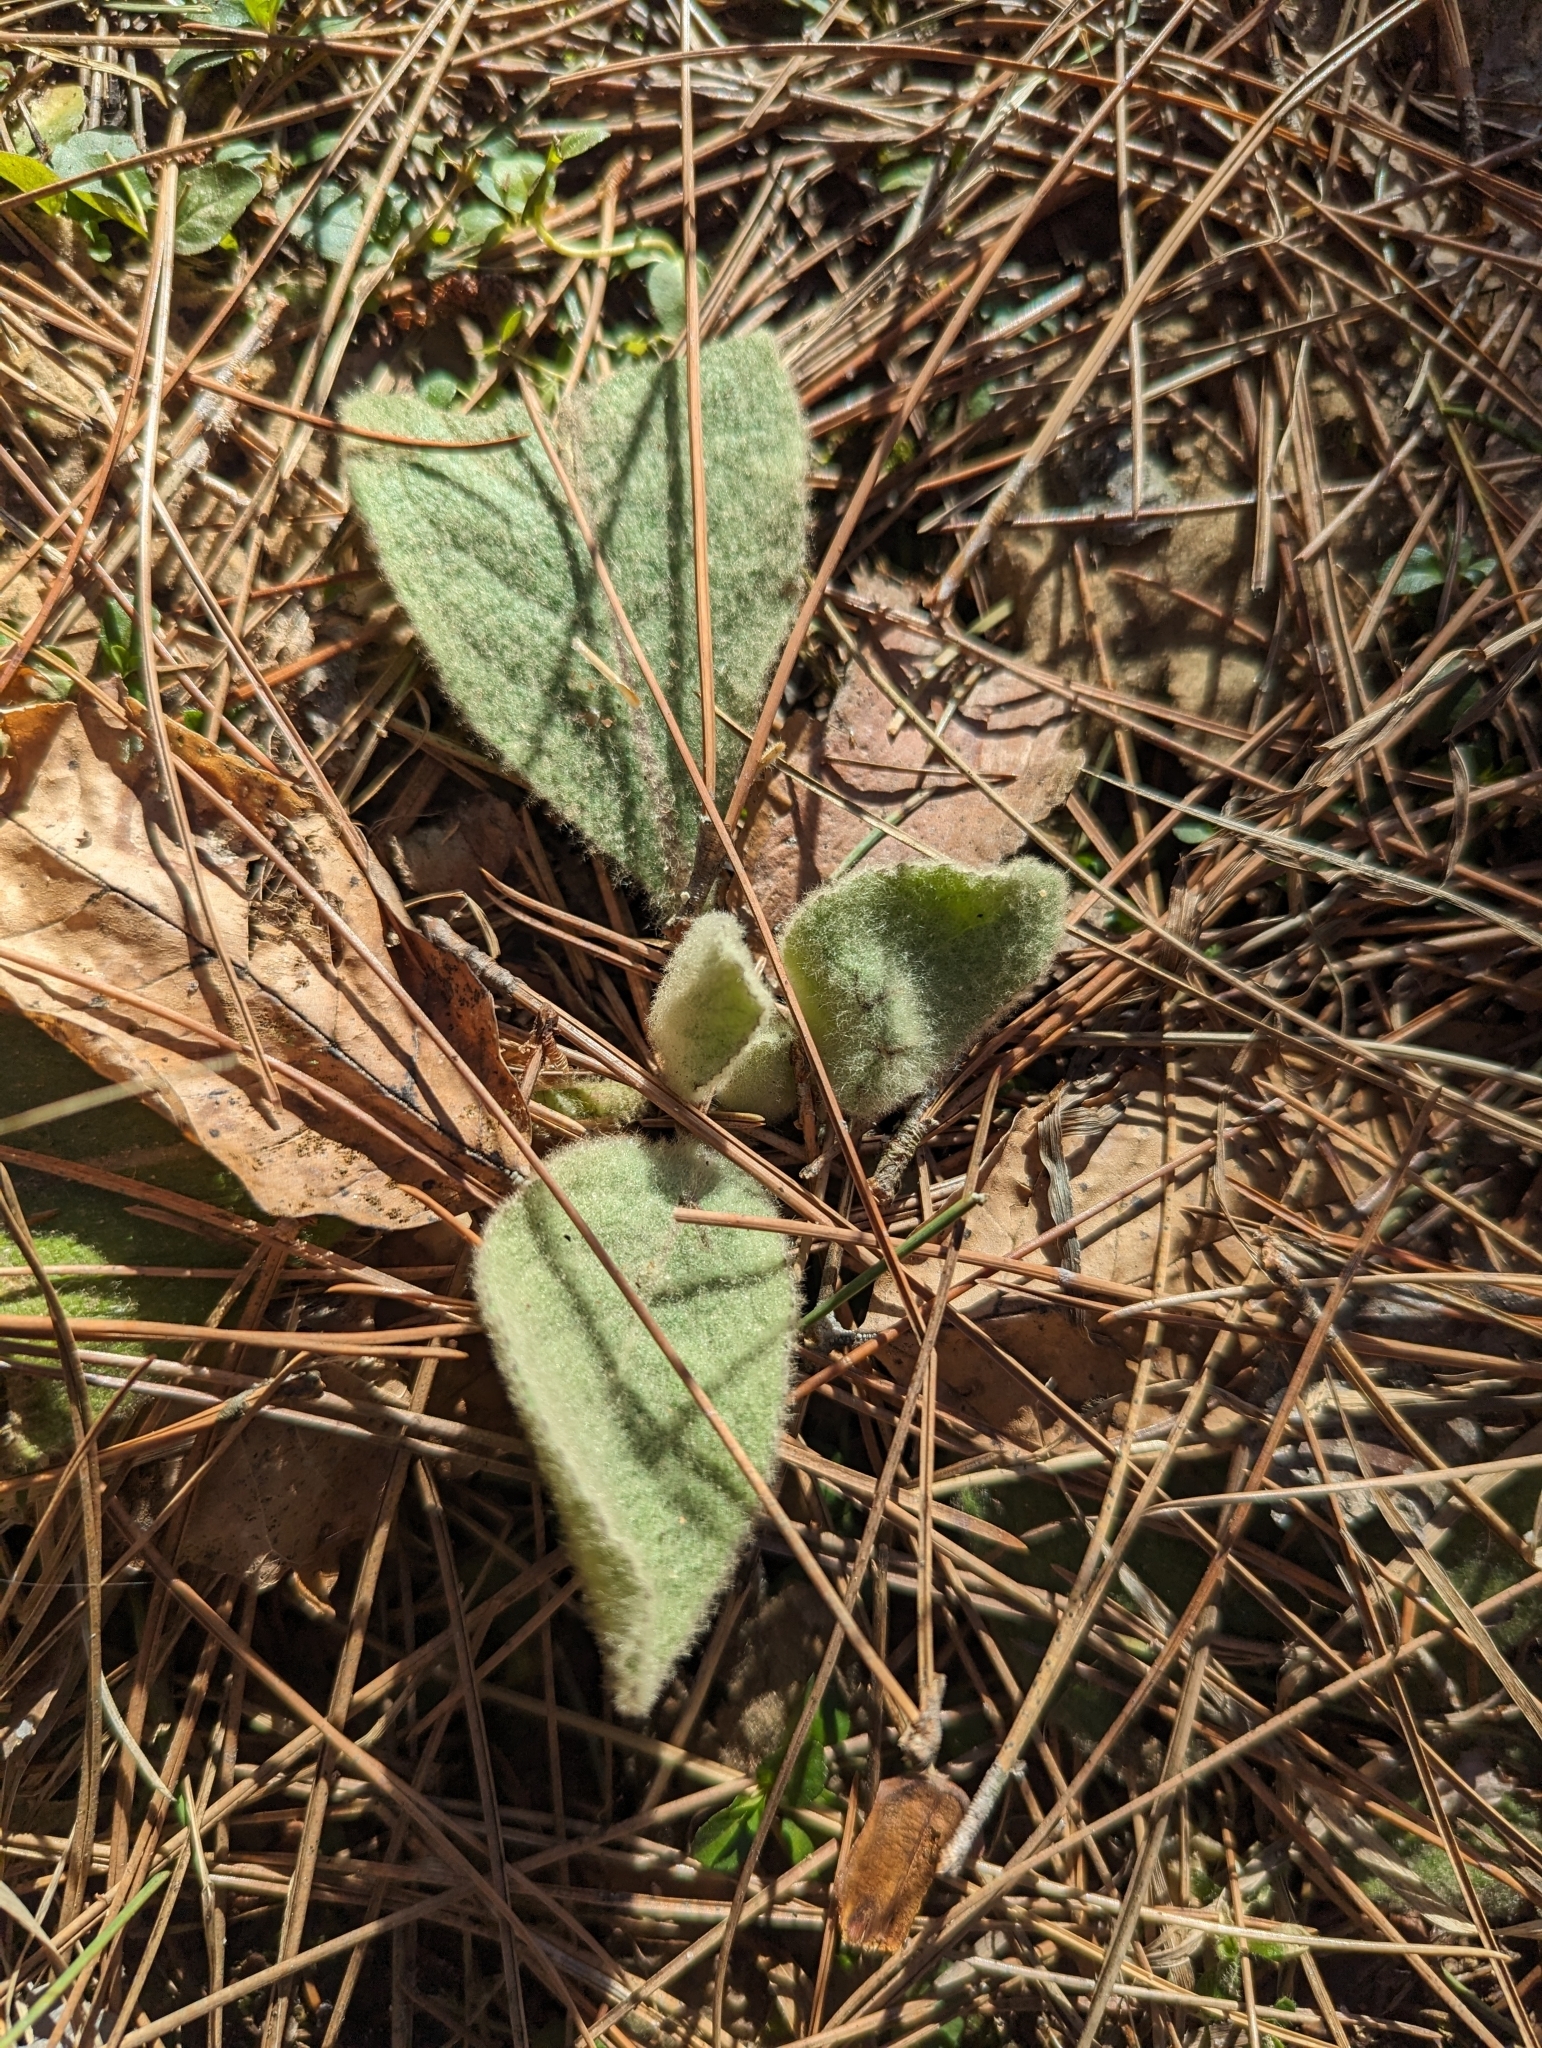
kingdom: Plantae
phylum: Tracheophyta
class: Magnoliopsida
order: Lamiales
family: Scrophulariaceae
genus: Verbascum
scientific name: Verbascum thapsus
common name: Common mullein
